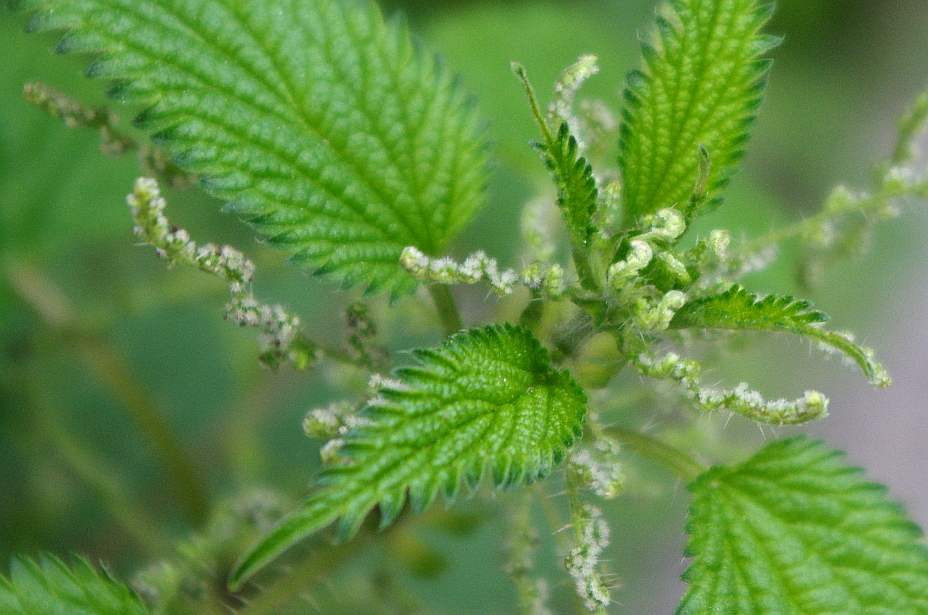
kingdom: Plantae
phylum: Tracheophyta
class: Magnoliopsida
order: Rosales
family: Urticaceae
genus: Urtica
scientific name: Urtica dioica
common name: Common nettle
